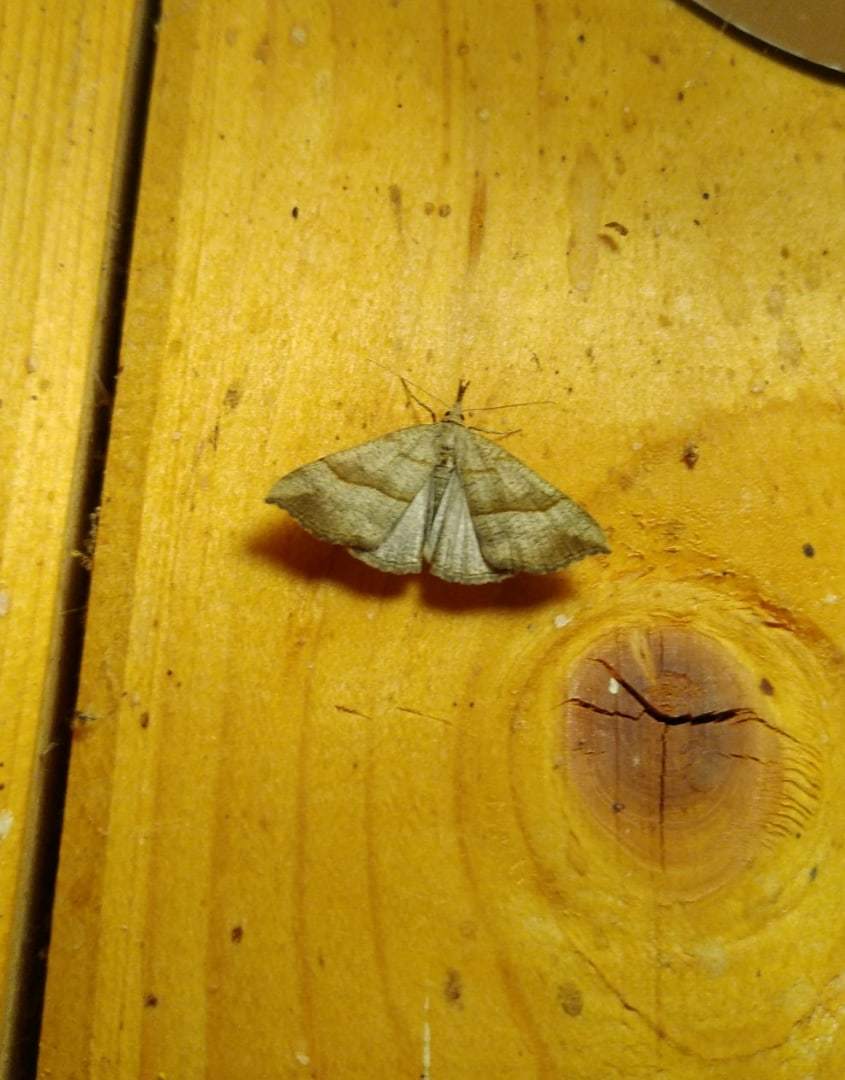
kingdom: Animalia
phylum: Arthropoda
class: Insecta
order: Lepidoptera
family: Erebidae
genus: Hypena
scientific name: Hypena proboscidalis
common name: Snout
